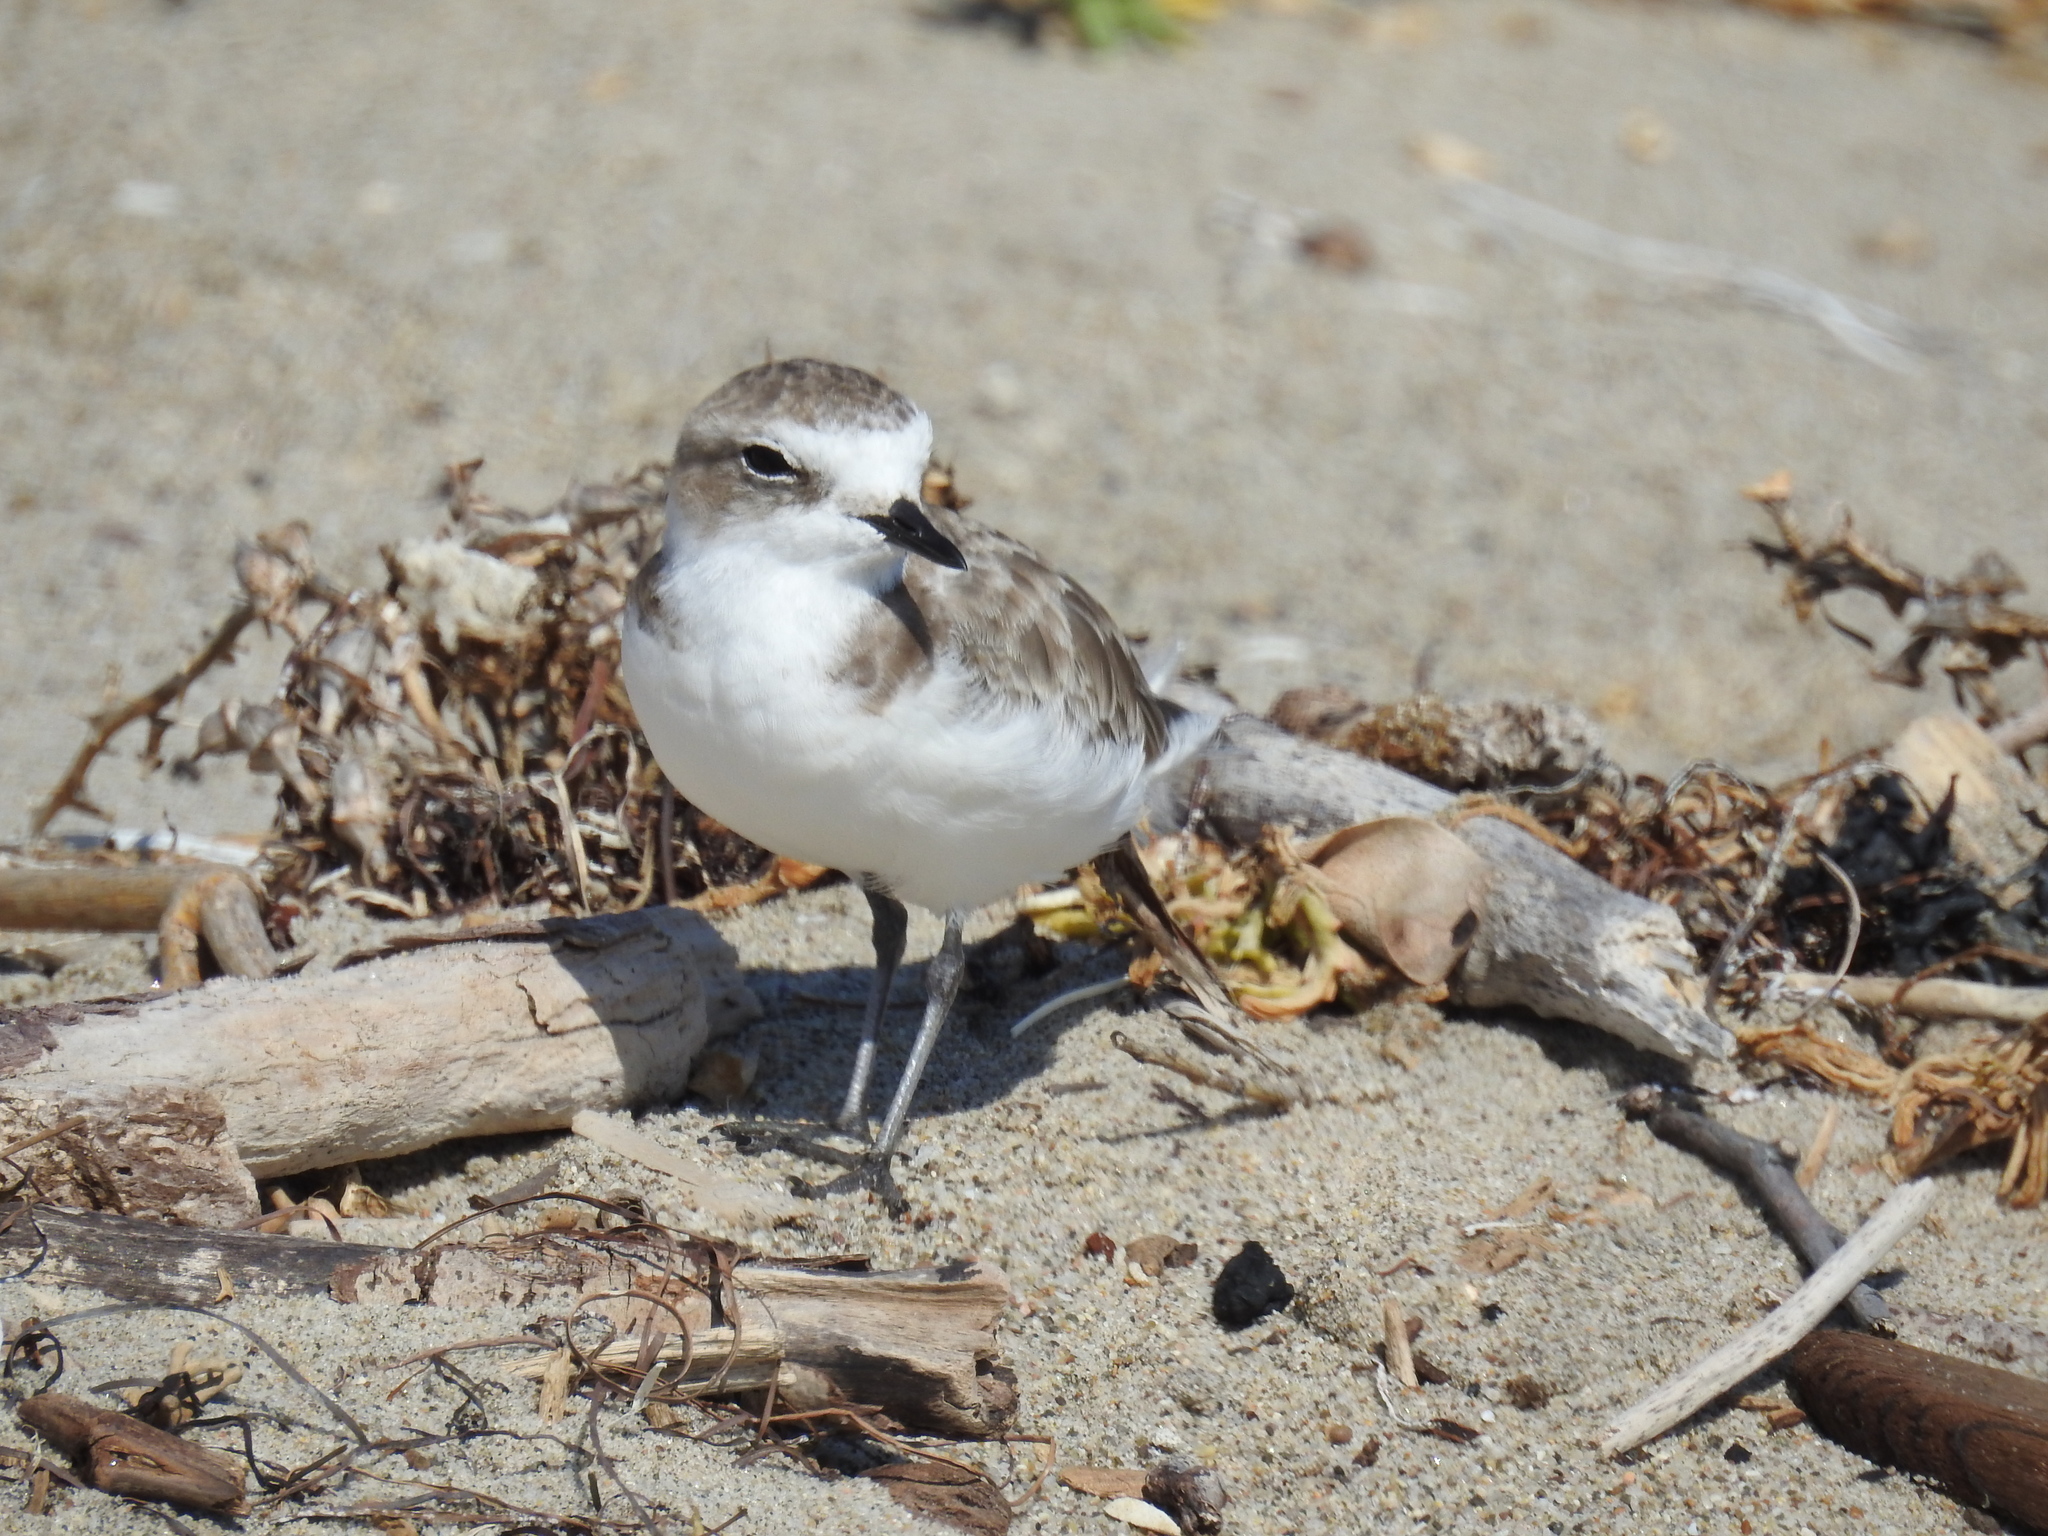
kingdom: Animalia
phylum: Chordata
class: Aves
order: Charadriiformes
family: Charadriidae
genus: Anarhynchus
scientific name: Anarhynchus
